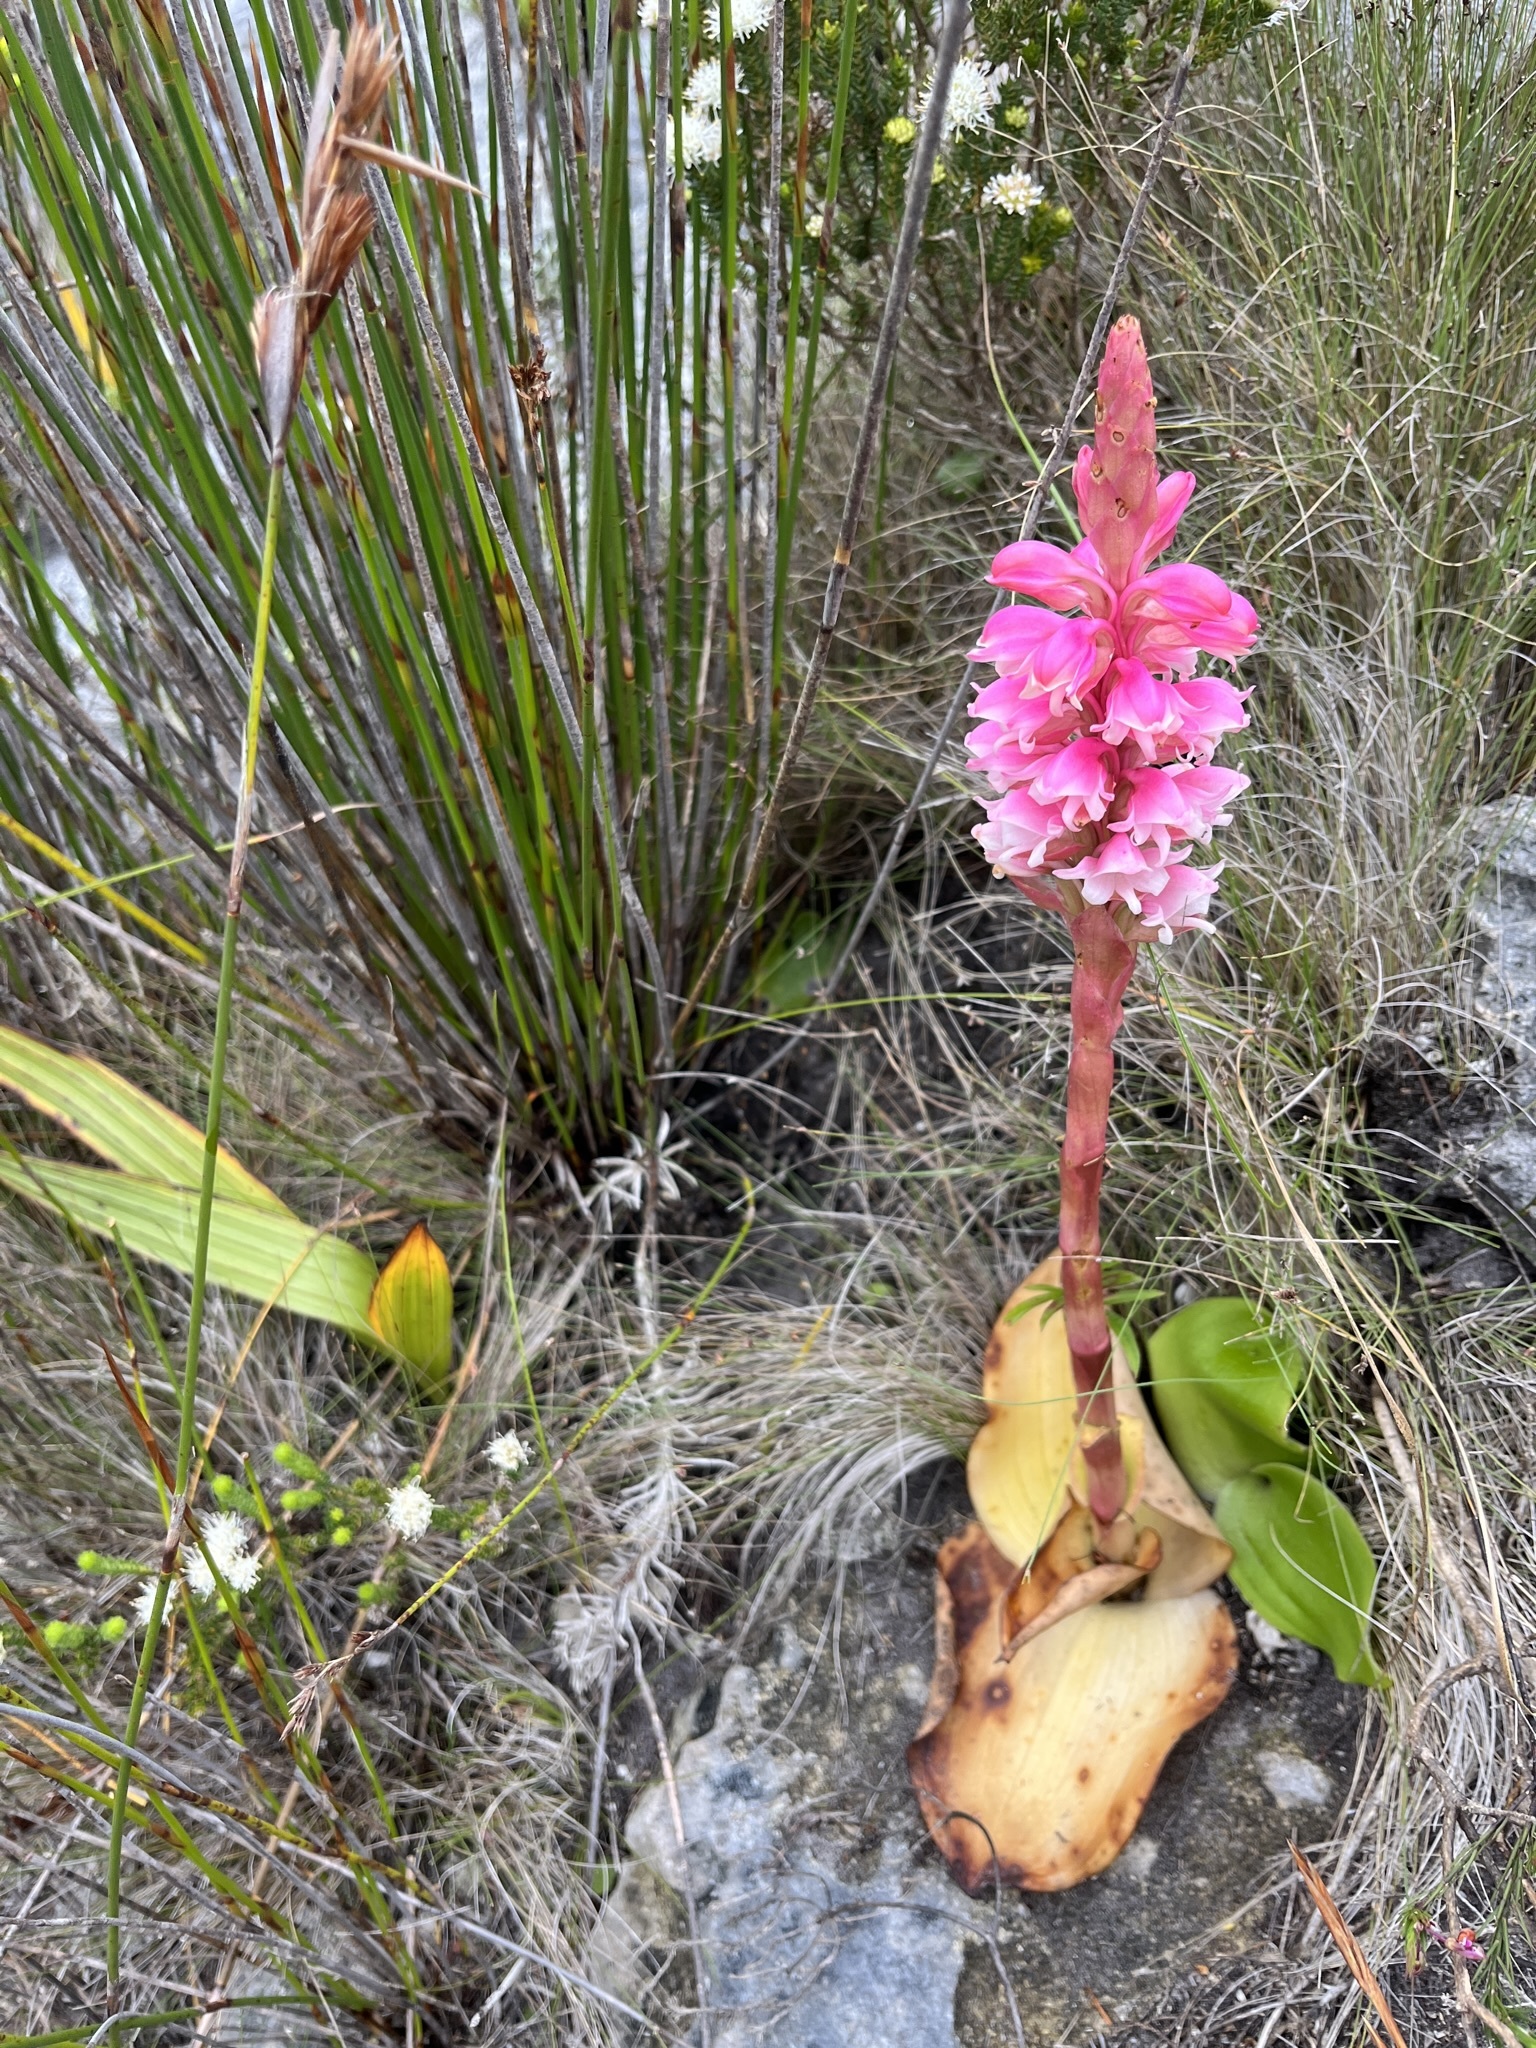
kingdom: Plantae
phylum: Tracheophyta
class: Liliopsida
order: Asparagales
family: Orchidaceae
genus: Satyrium
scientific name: Satyrium carneum
